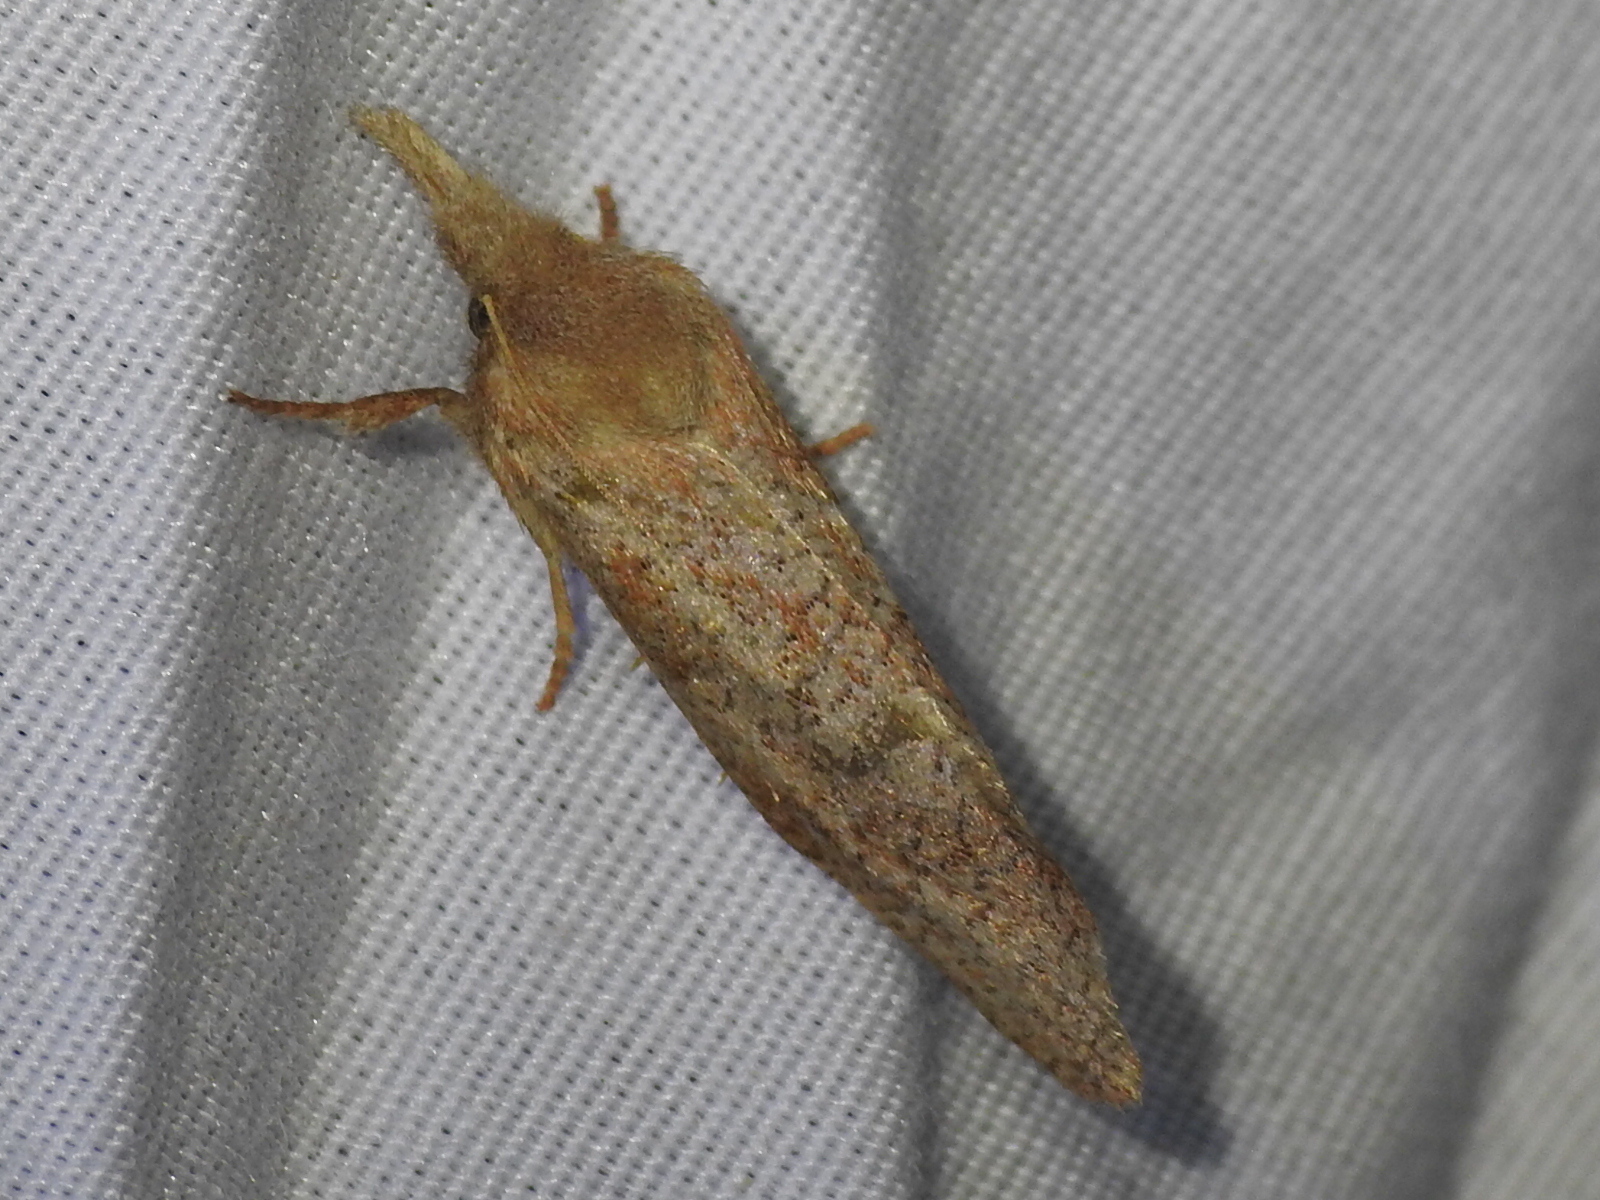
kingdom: Animalia
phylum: Arthropoda
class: Insecta
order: Lepidoptera
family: Tineidae
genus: Acrolophus
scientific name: Acrolophus plumifrontella
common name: Eastern grass tubeworm moth
